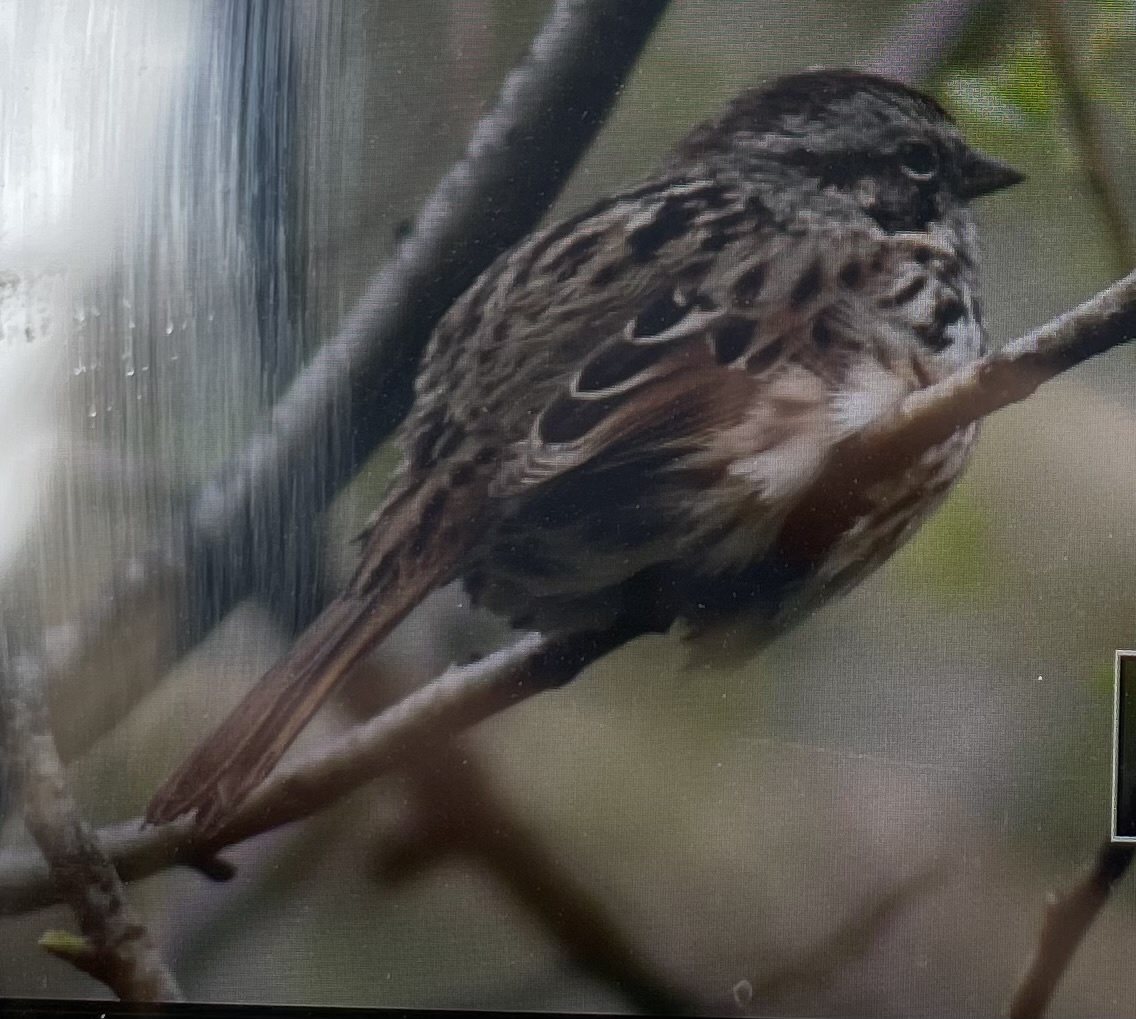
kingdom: Animalia
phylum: Chordata
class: Aves
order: Passeriformes
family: Passerellidae
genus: Melospiza
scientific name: Melospiza melodia
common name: Song sparrow
